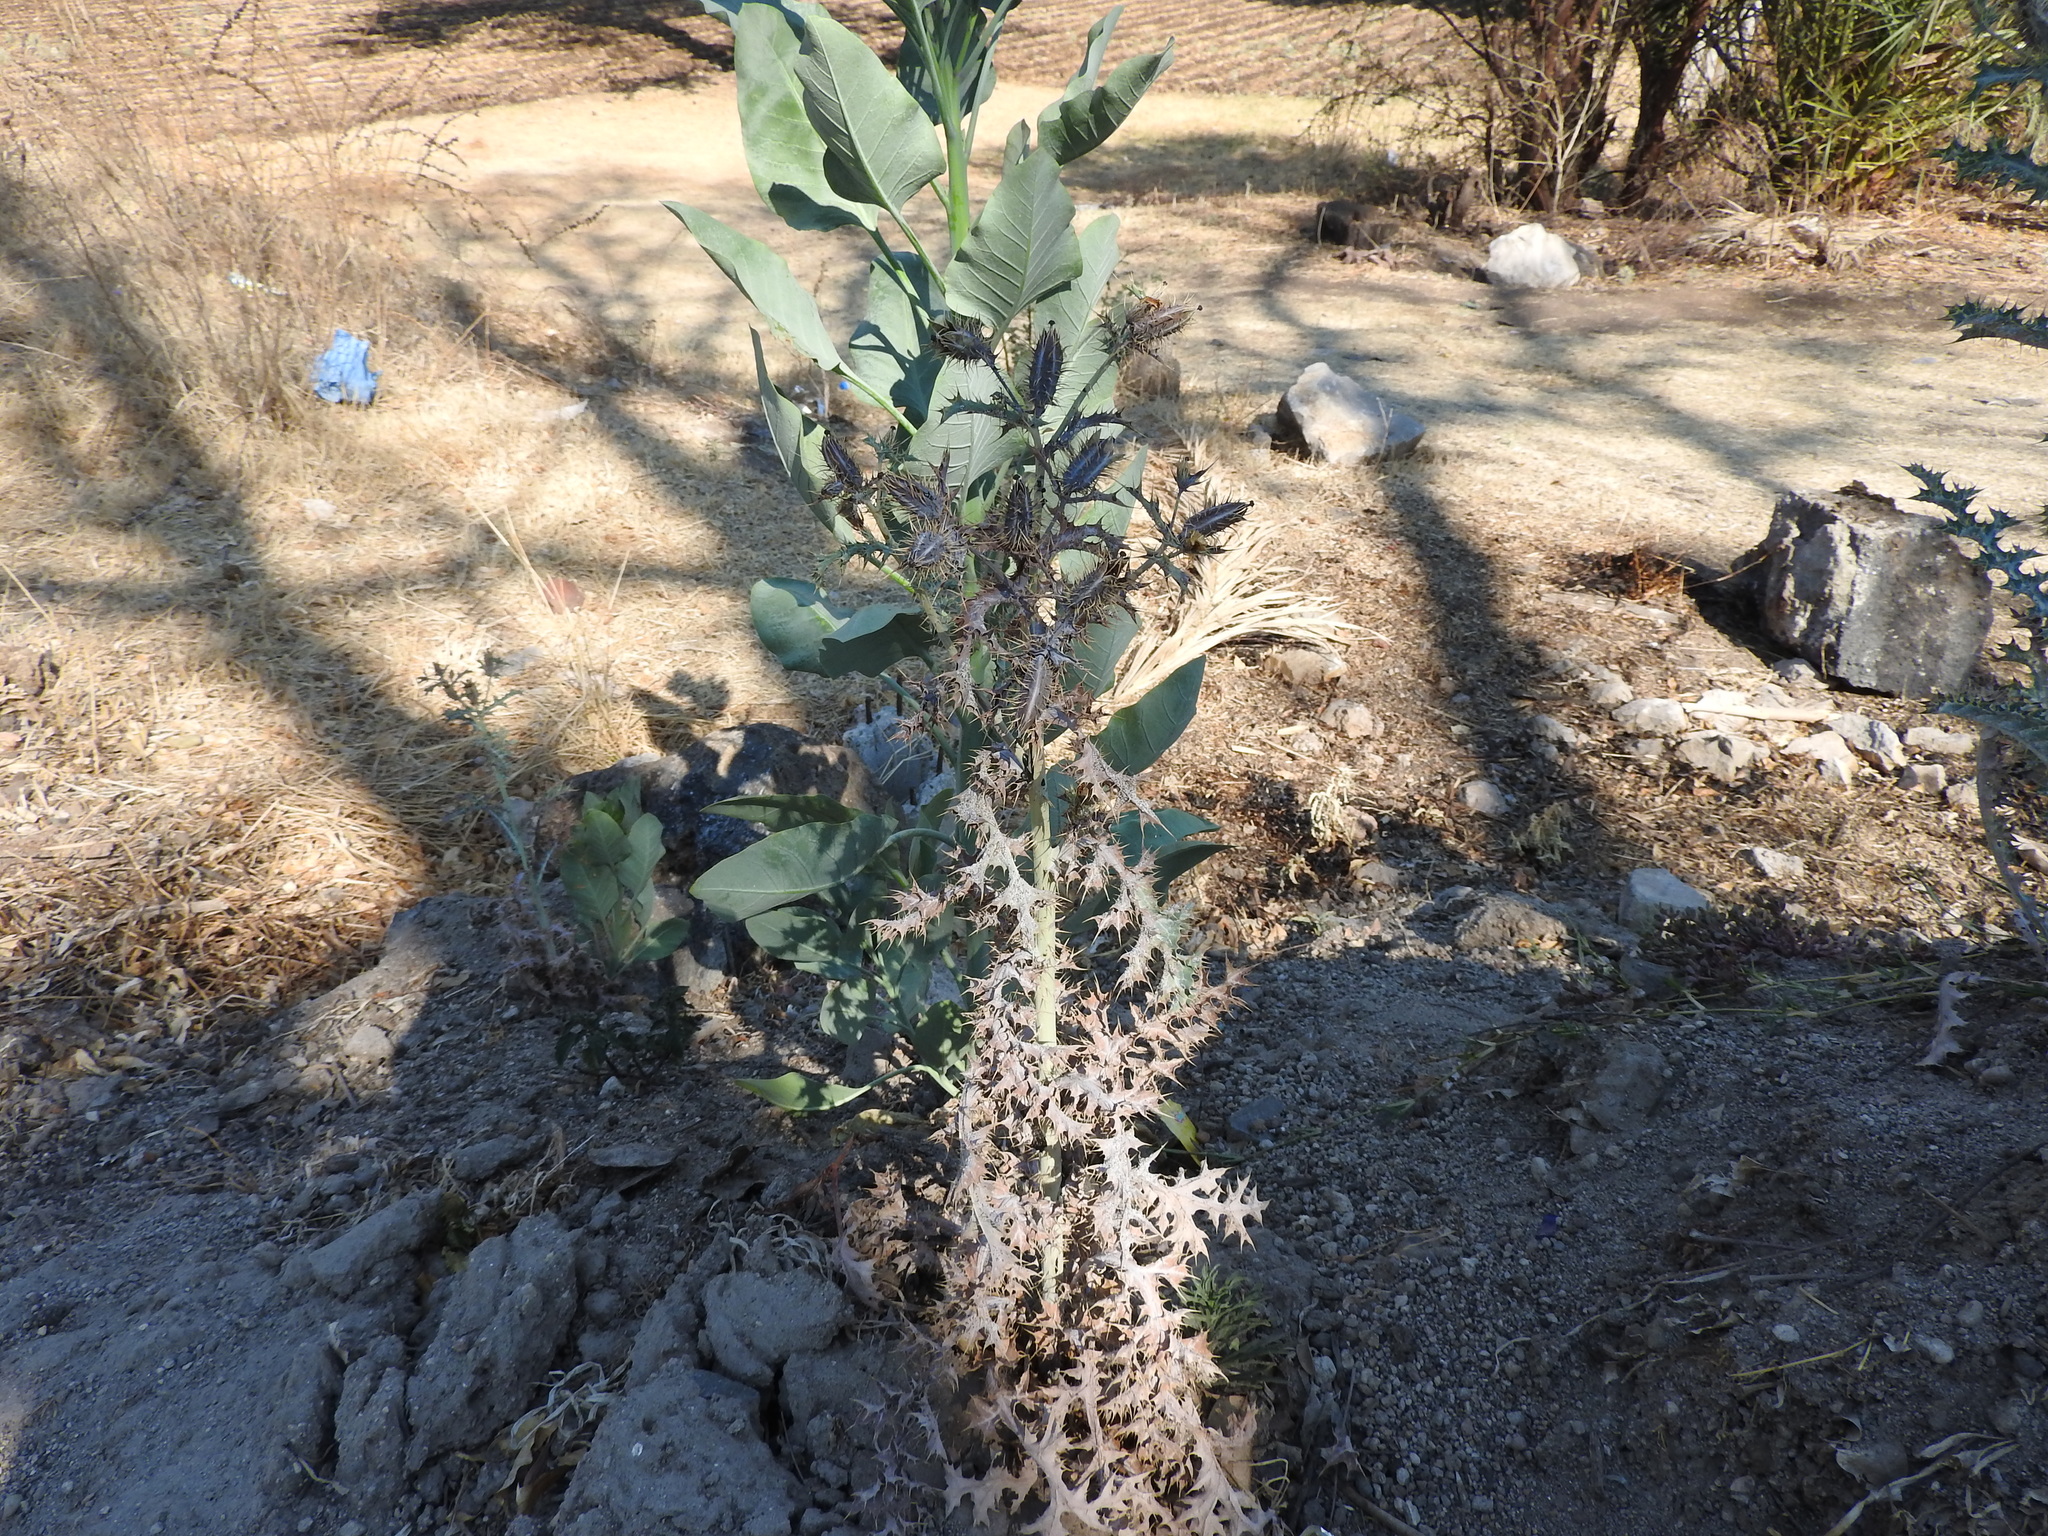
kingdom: Plantae
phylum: Tracheophyta
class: Magnoliopsida
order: Solanales
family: Solanaceae
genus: Nicotiana
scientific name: Nicotiana glauca
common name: Tree tobacco
